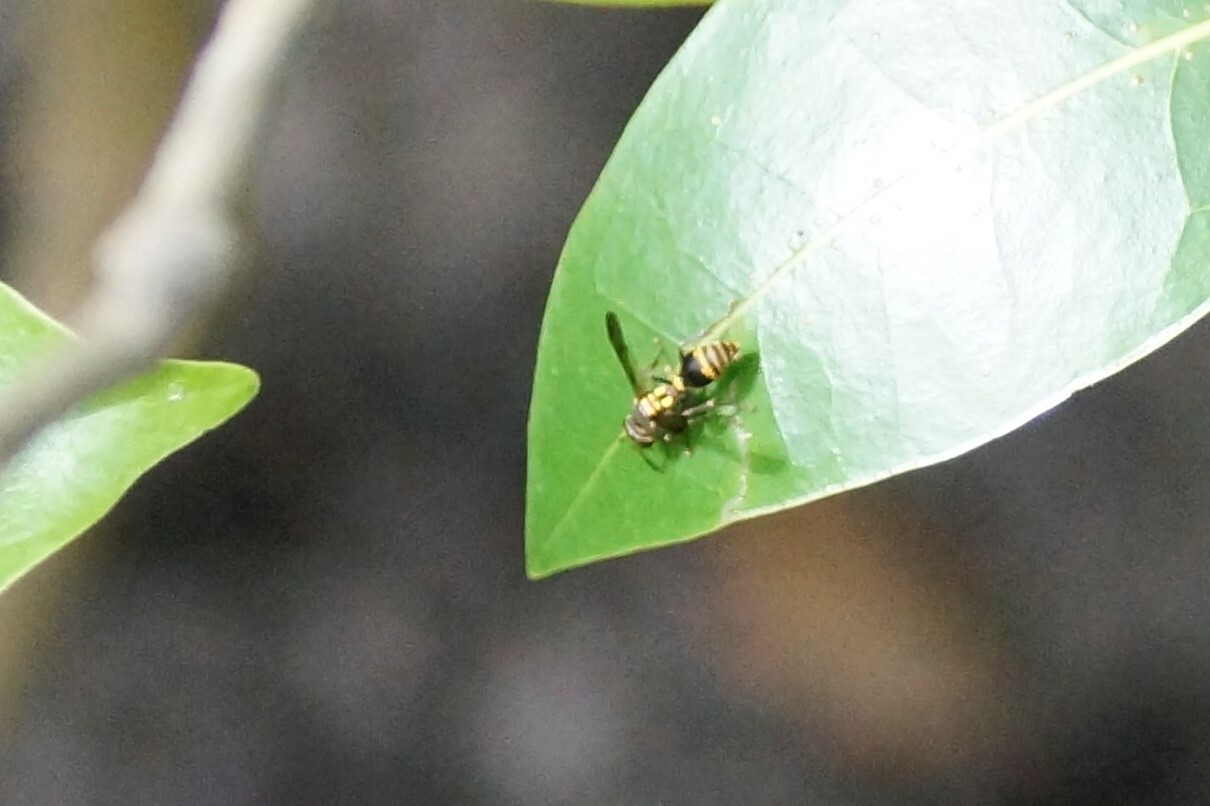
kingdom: Animalia
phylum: Arthropoda
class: Insecta
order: Hymenoptera
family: Vespidae
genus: Ropalidia
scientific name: Ropalidia socialistica
